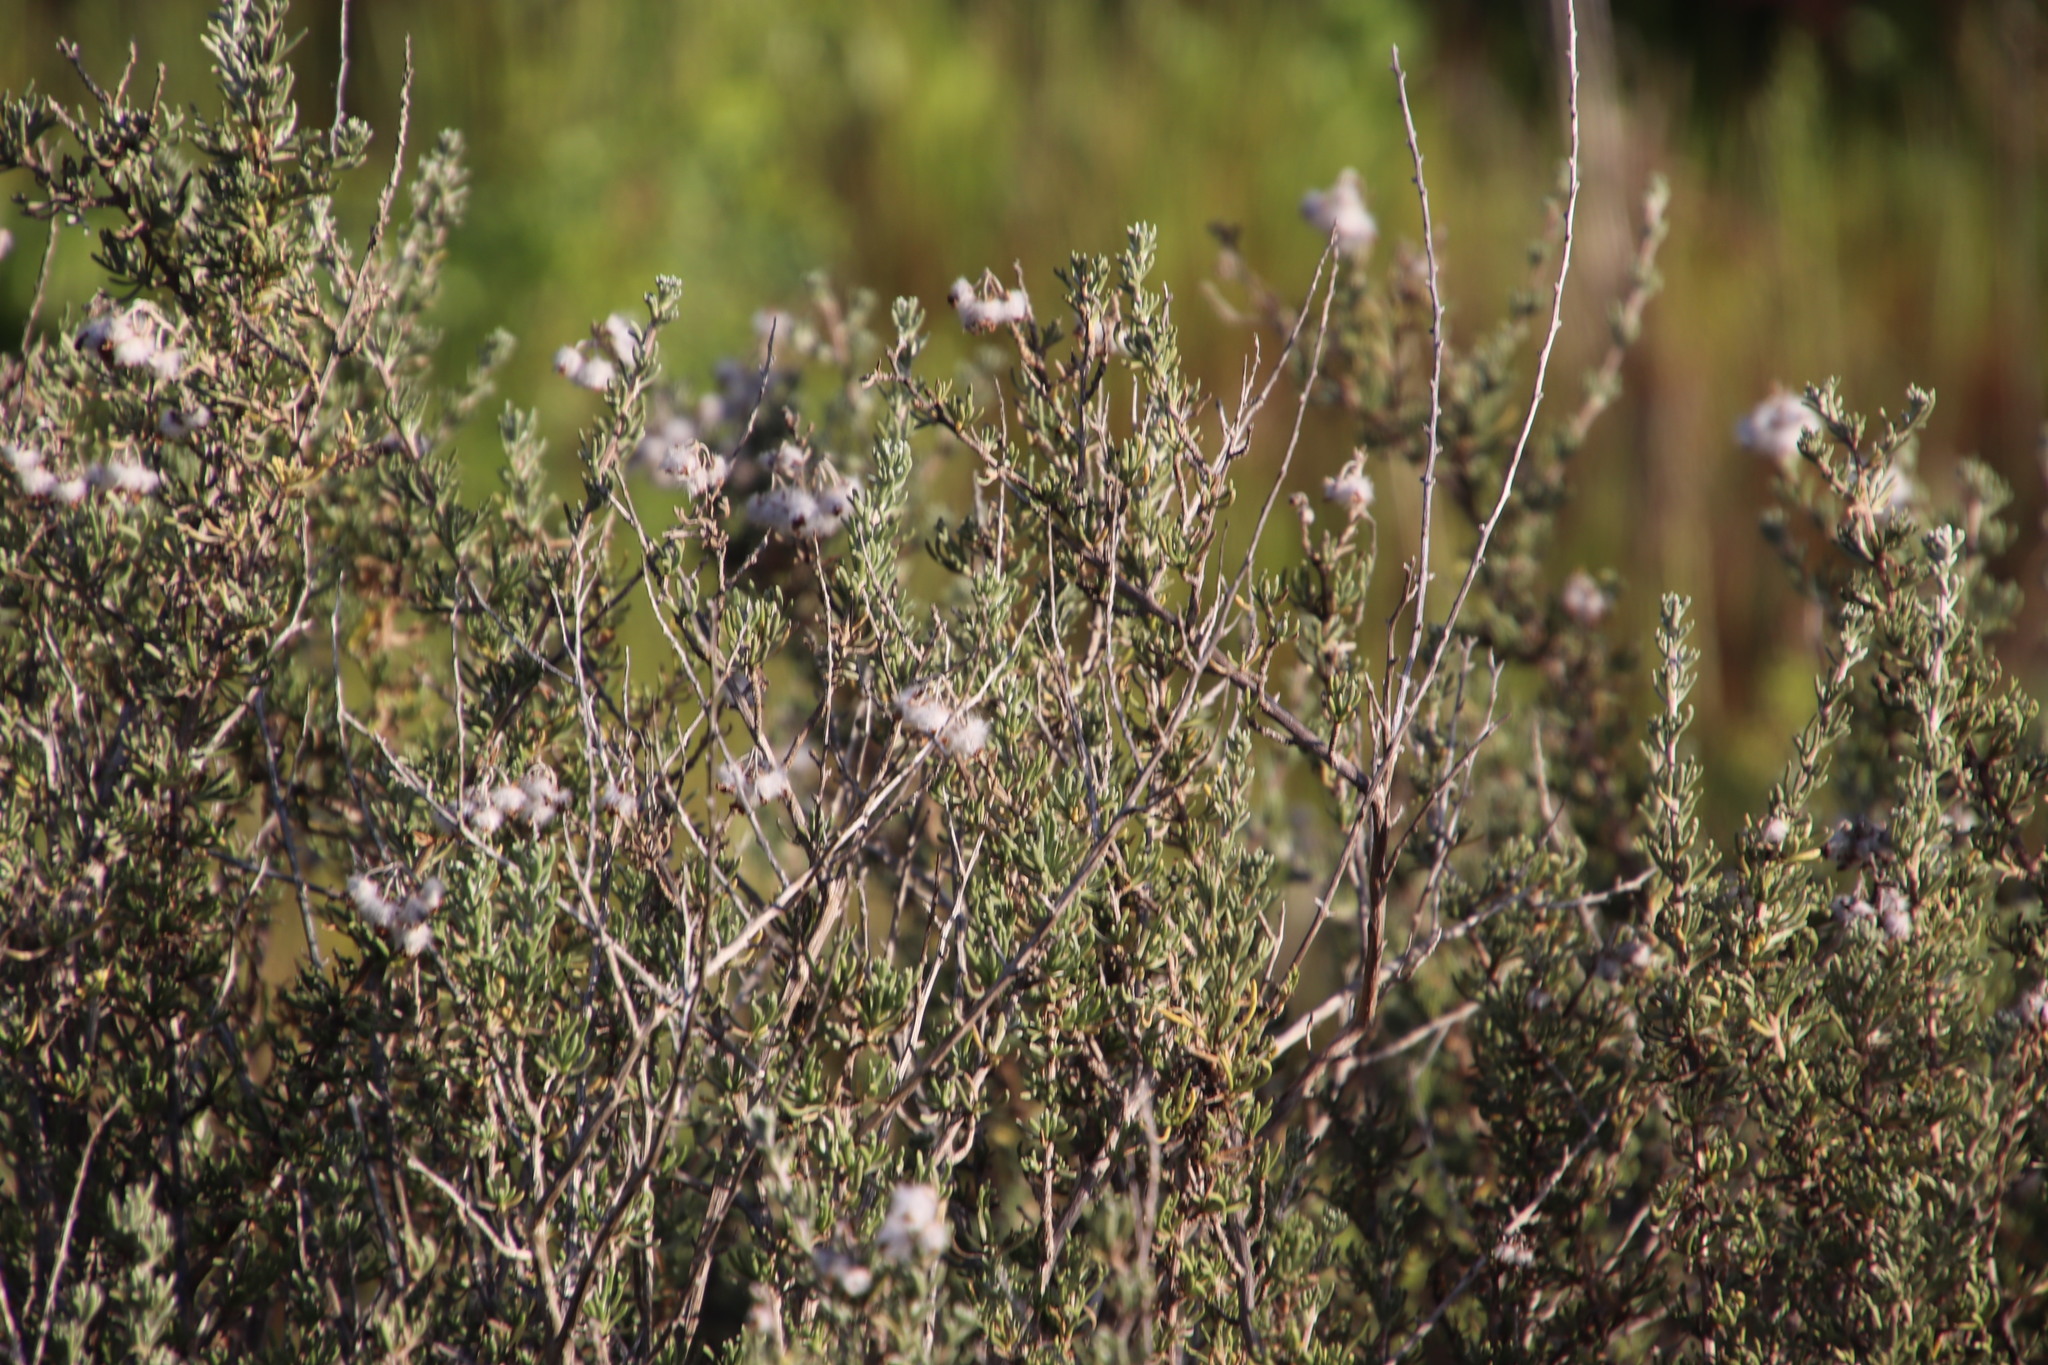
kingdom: Plantae
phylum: Tracheophyta
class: Magnoliopsida
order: Asterales
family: Asteraceae
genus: Eriocephalus
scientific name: Eriocephalus africanus
